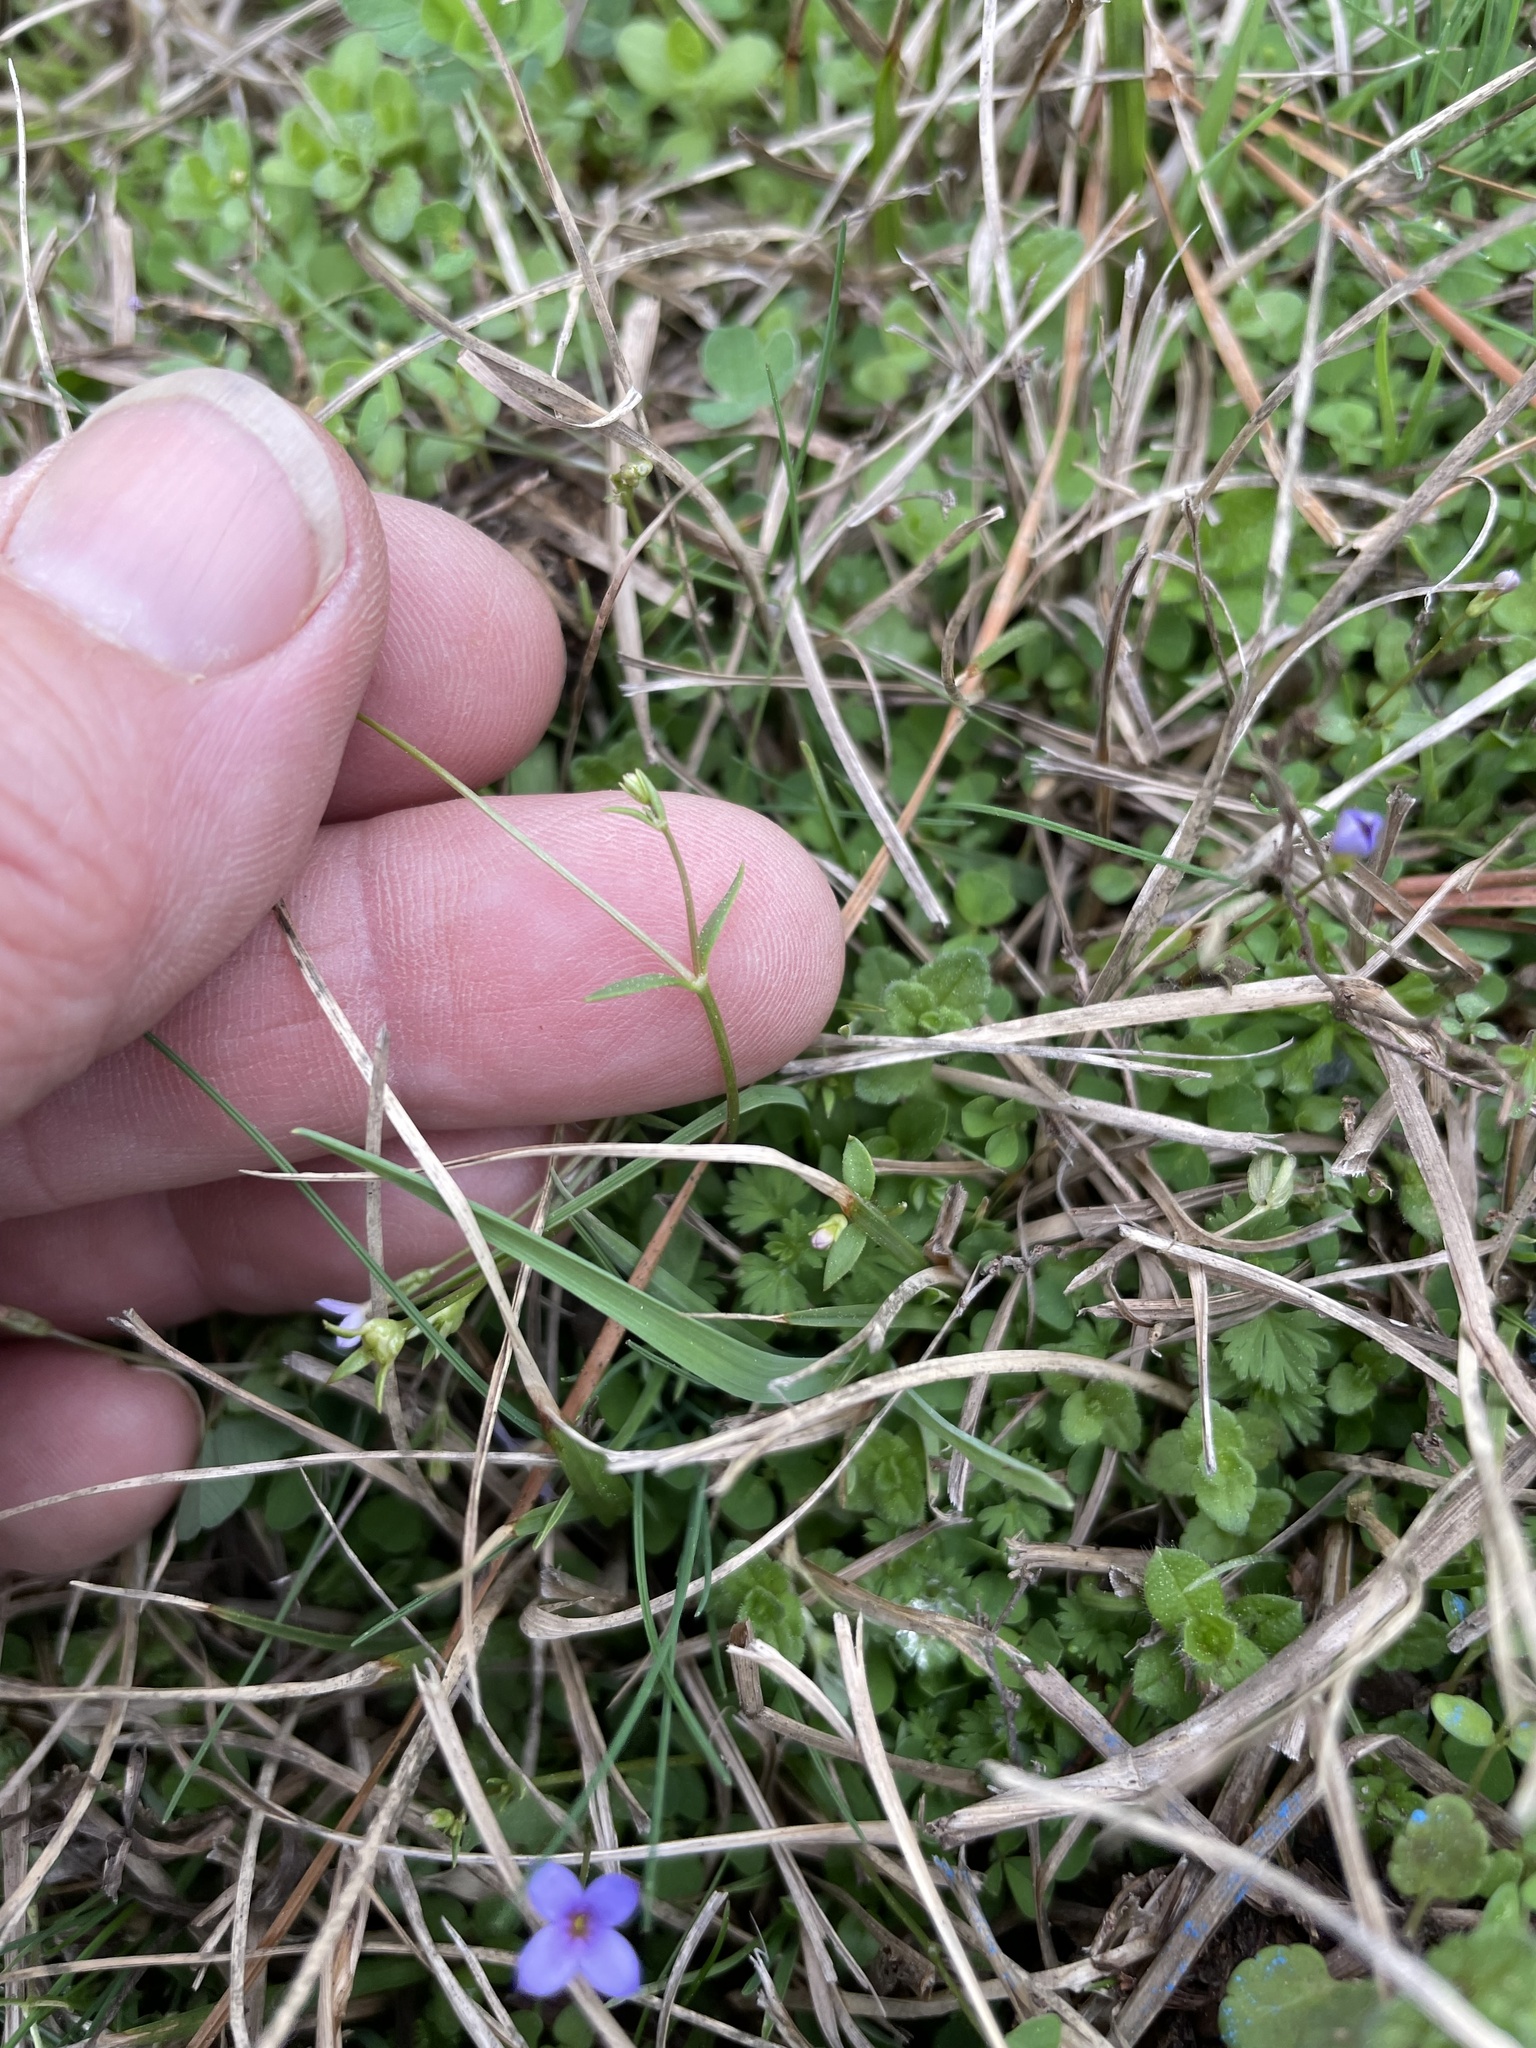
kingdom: Plantae
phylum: Tracheophyta
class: Magnoliopsida
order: Gentianales
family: Rubiaceae
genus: Houstonia
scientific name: Houstonia pusilla
